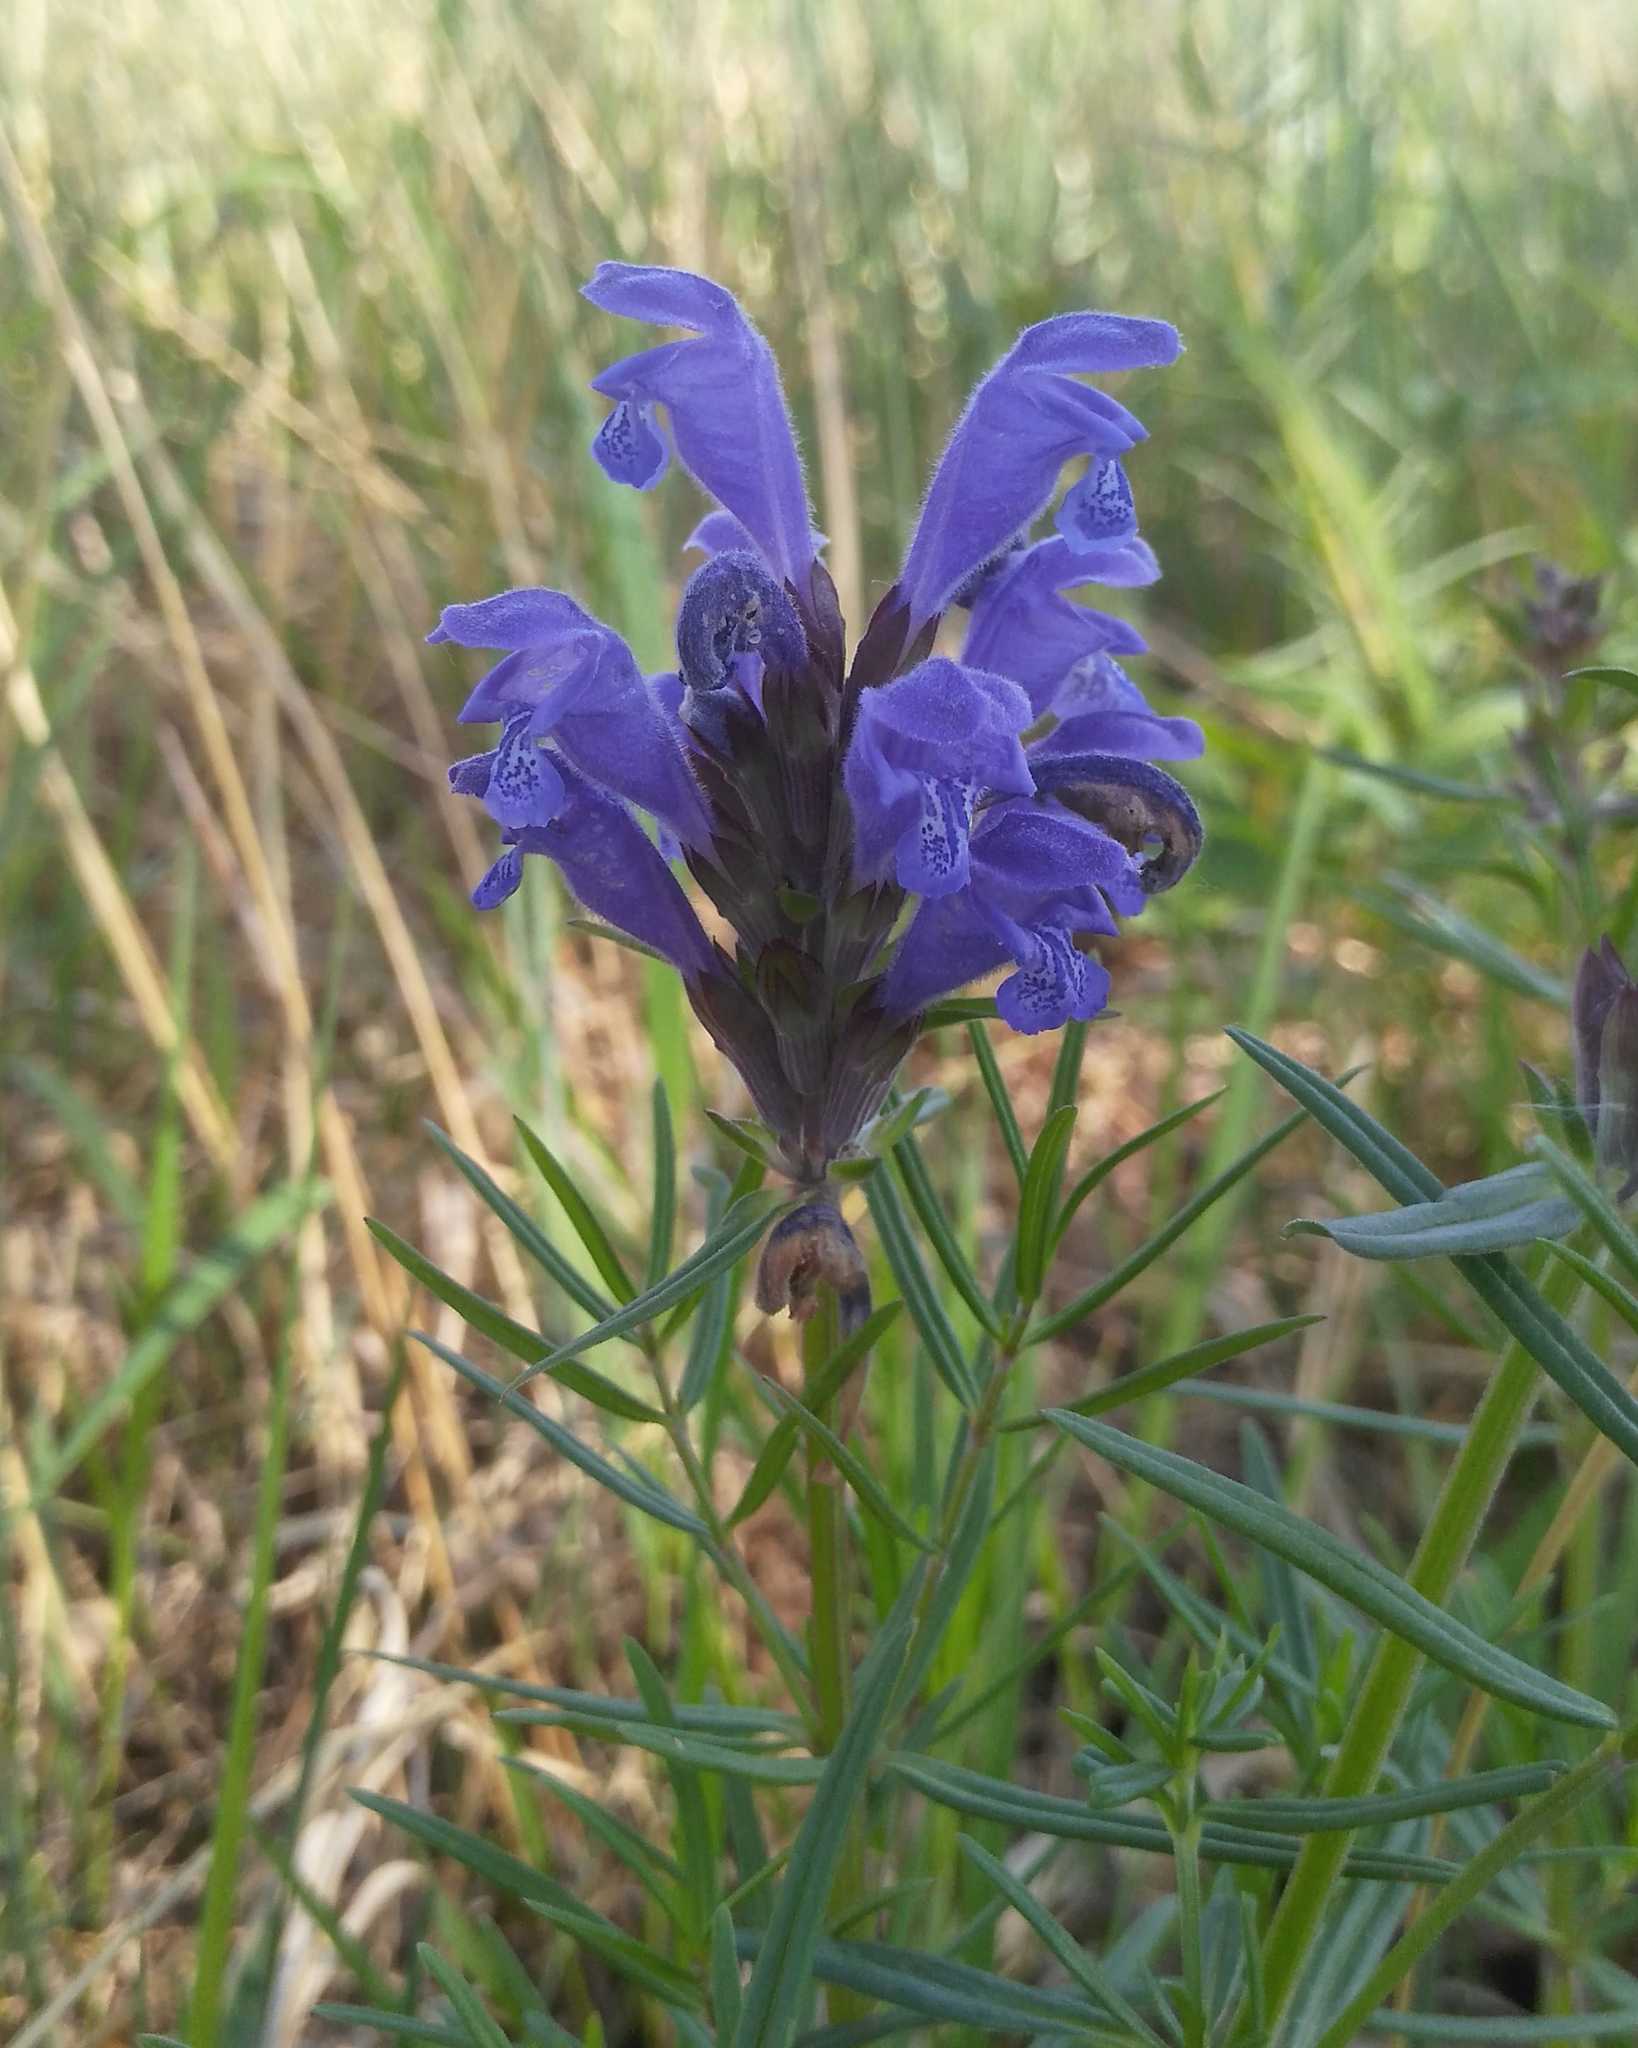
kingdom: Plantae
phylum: Tracheophyta
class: Magnoliopsida
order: Lamiales
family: Lamiaceae
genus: Dracocephalum
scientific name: Dracocephalum ruyschiana
